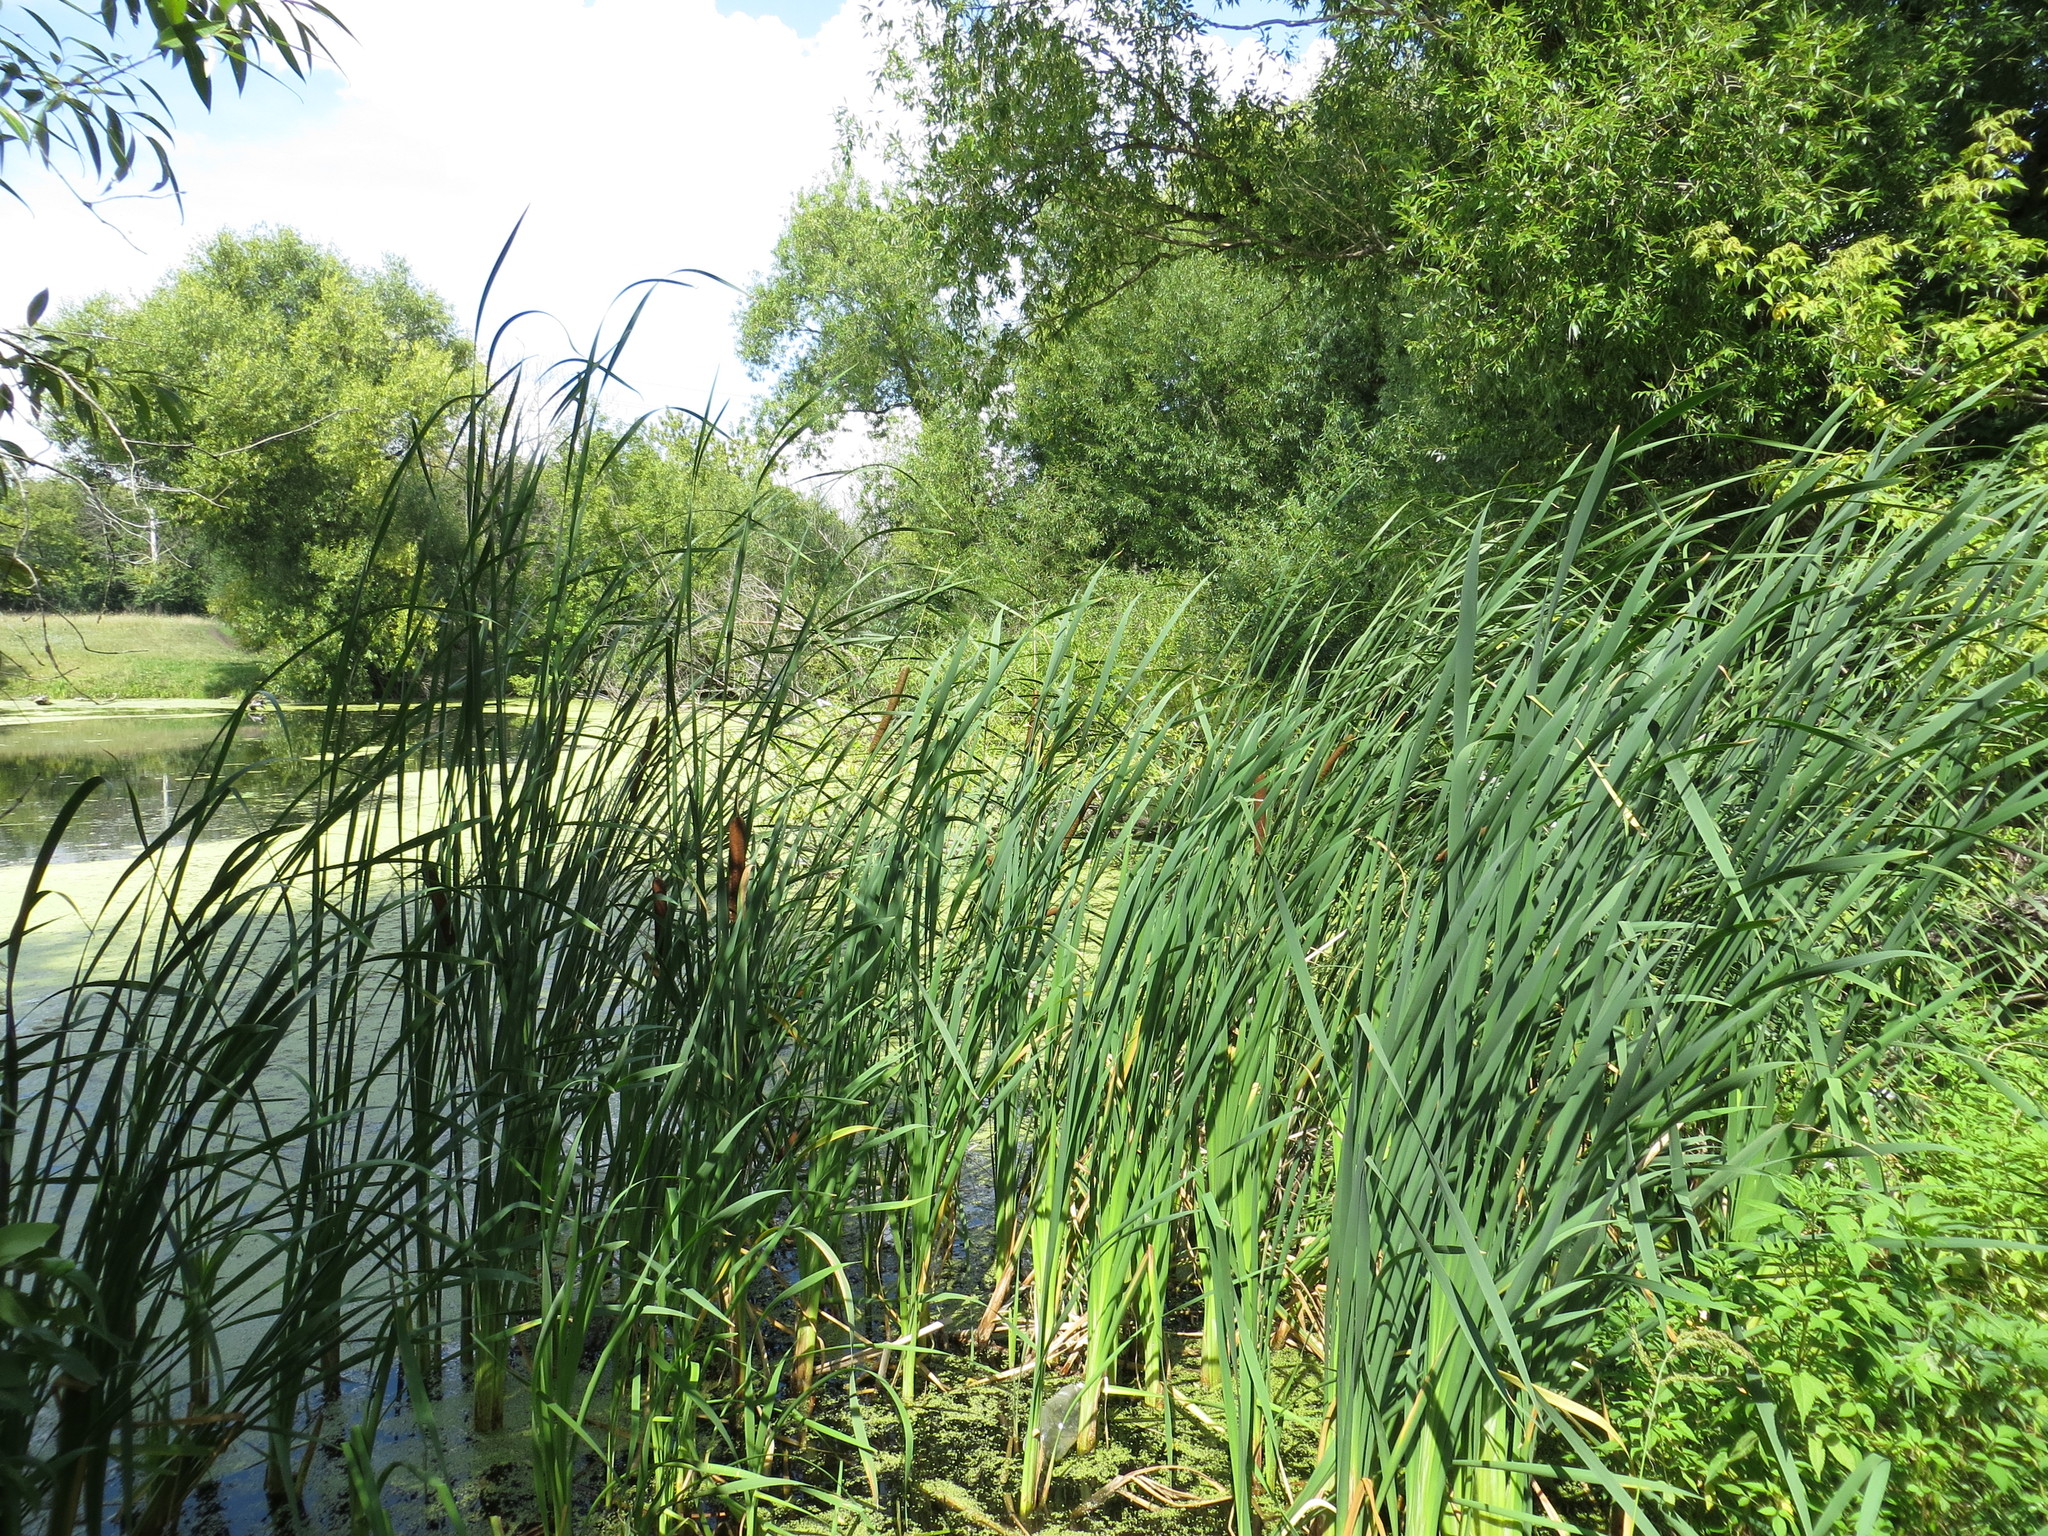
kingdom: Plantae
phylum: Tracheophyta
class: Liliopsida
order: Poales
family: Typhaceae
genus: Typha
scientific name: Typha latifolia
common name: Broadleaf cattail
